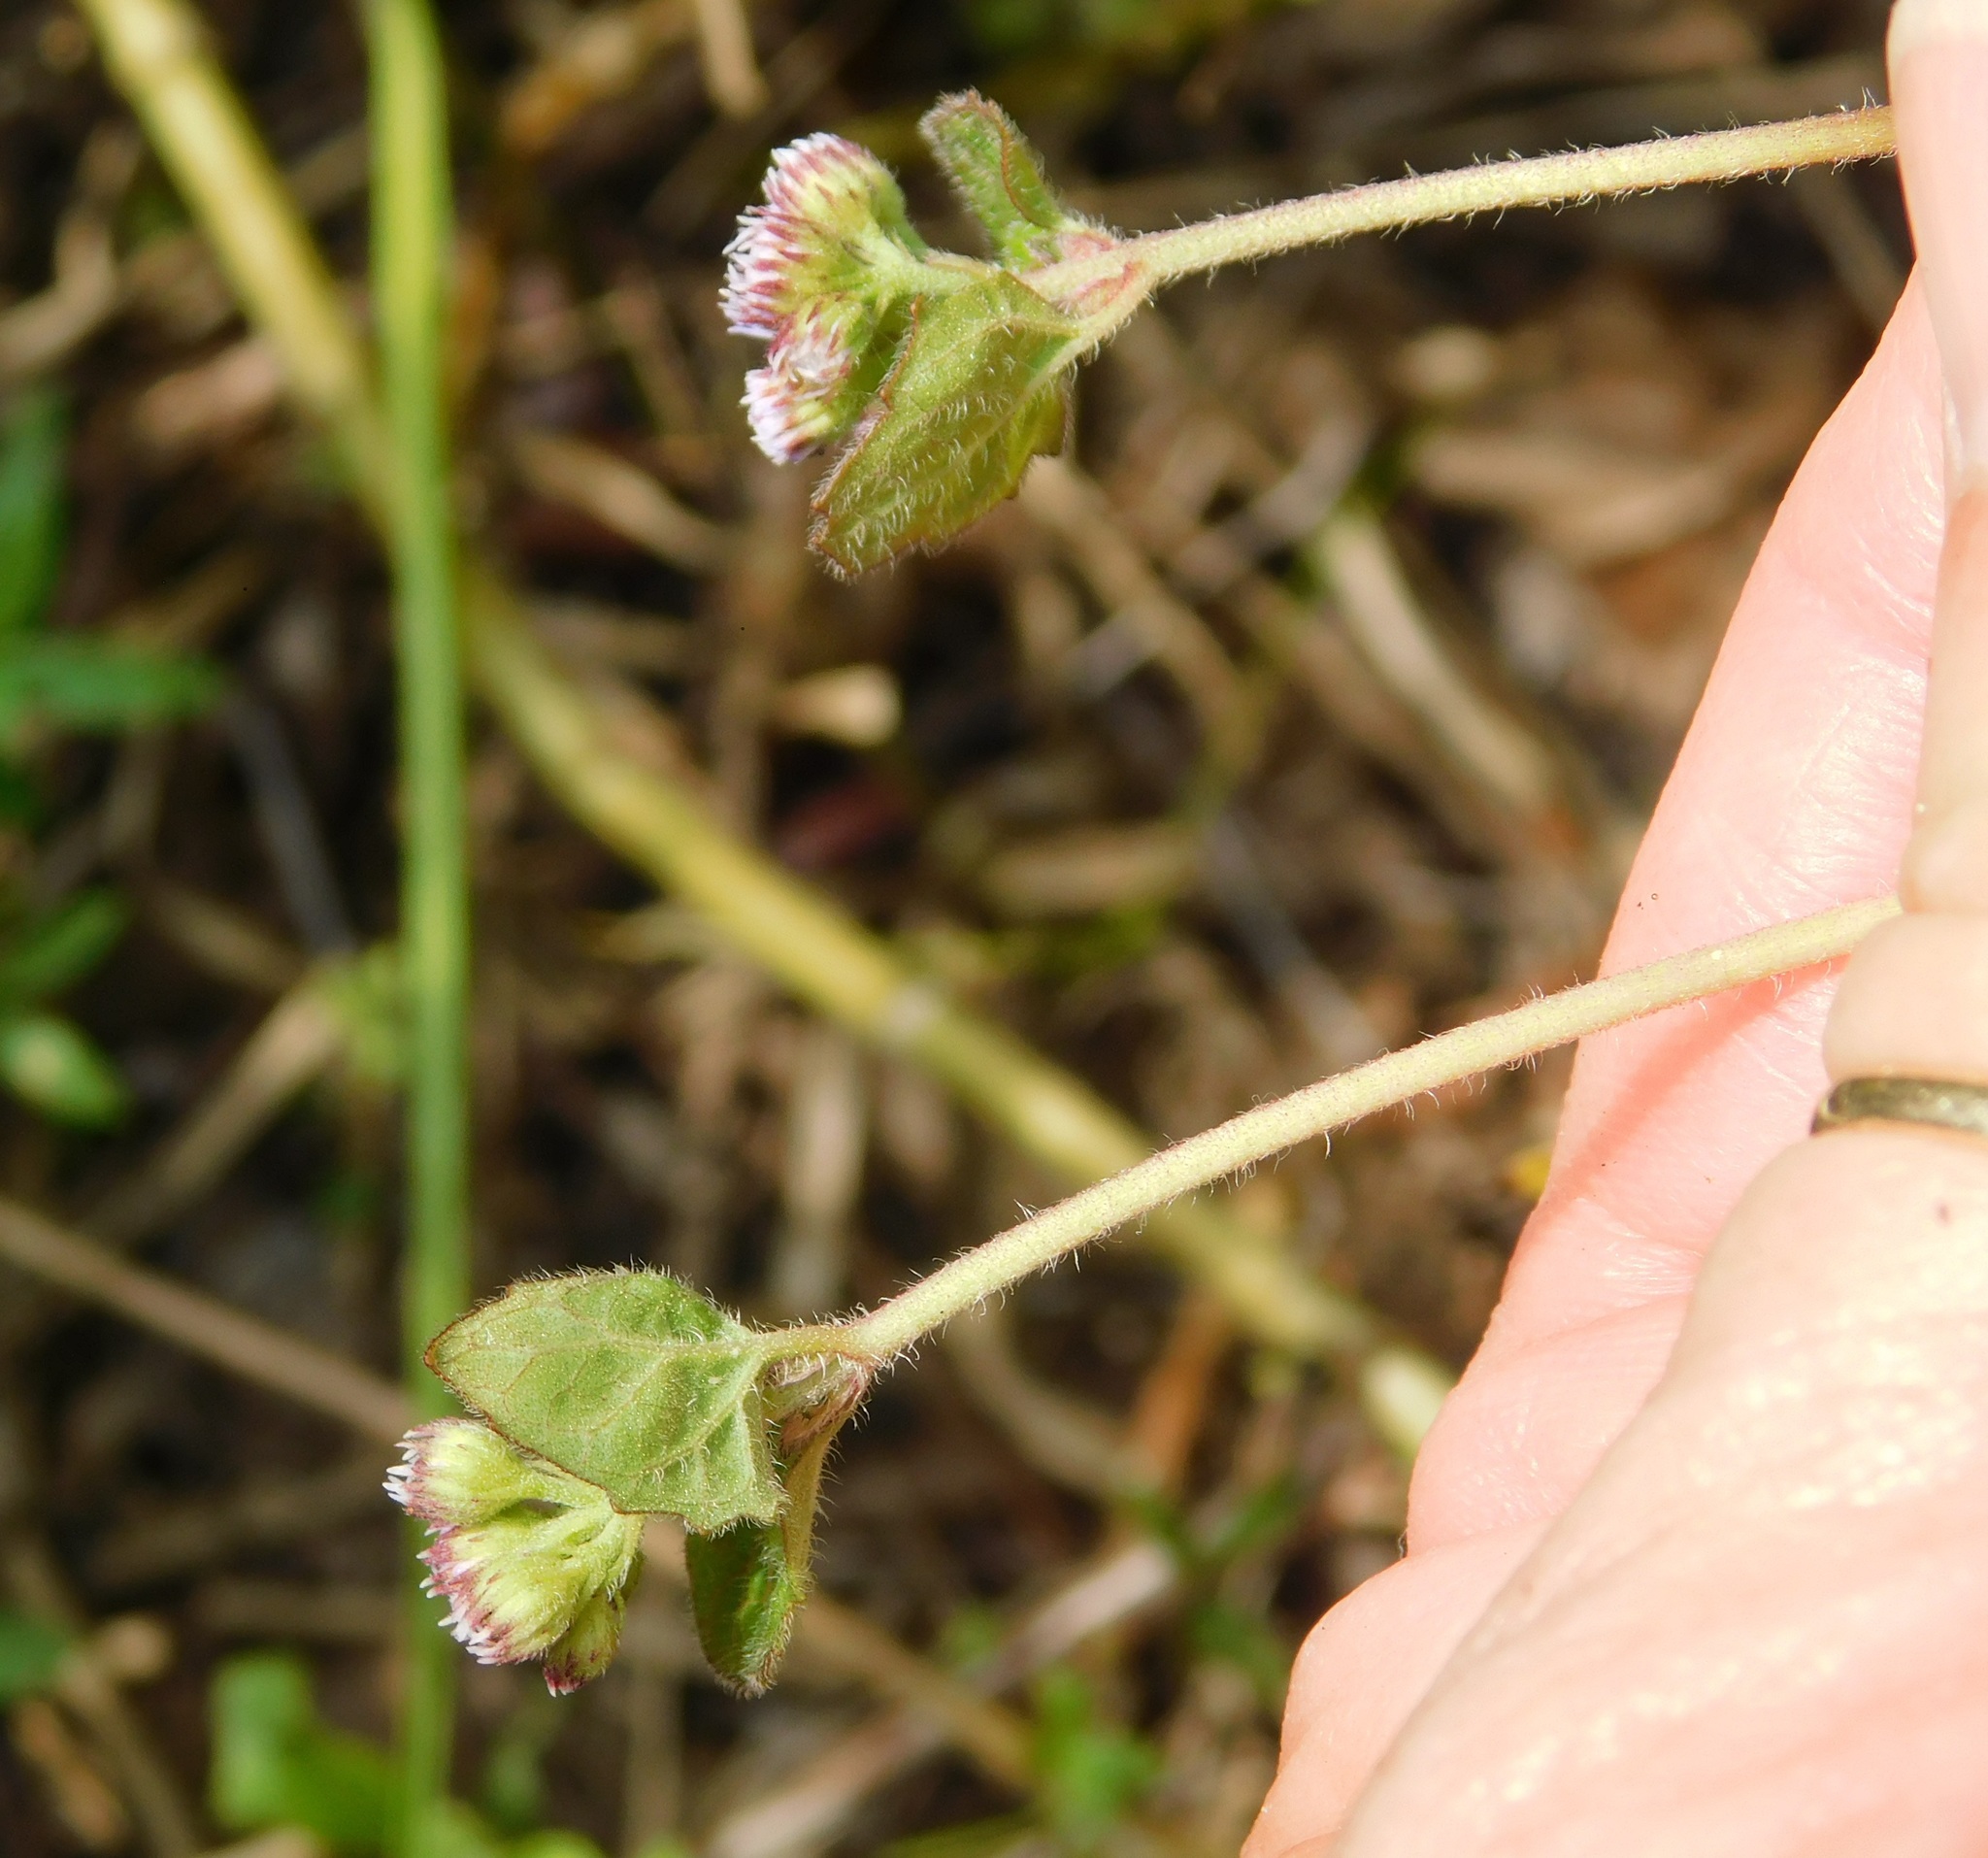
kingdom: Plantae
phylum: Tracheophyta
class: Magnoliopsida
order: Asterales
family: Asteraceae
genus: Conoclinium
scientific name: Conoclinium coelestinum
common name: Blue mistflower
